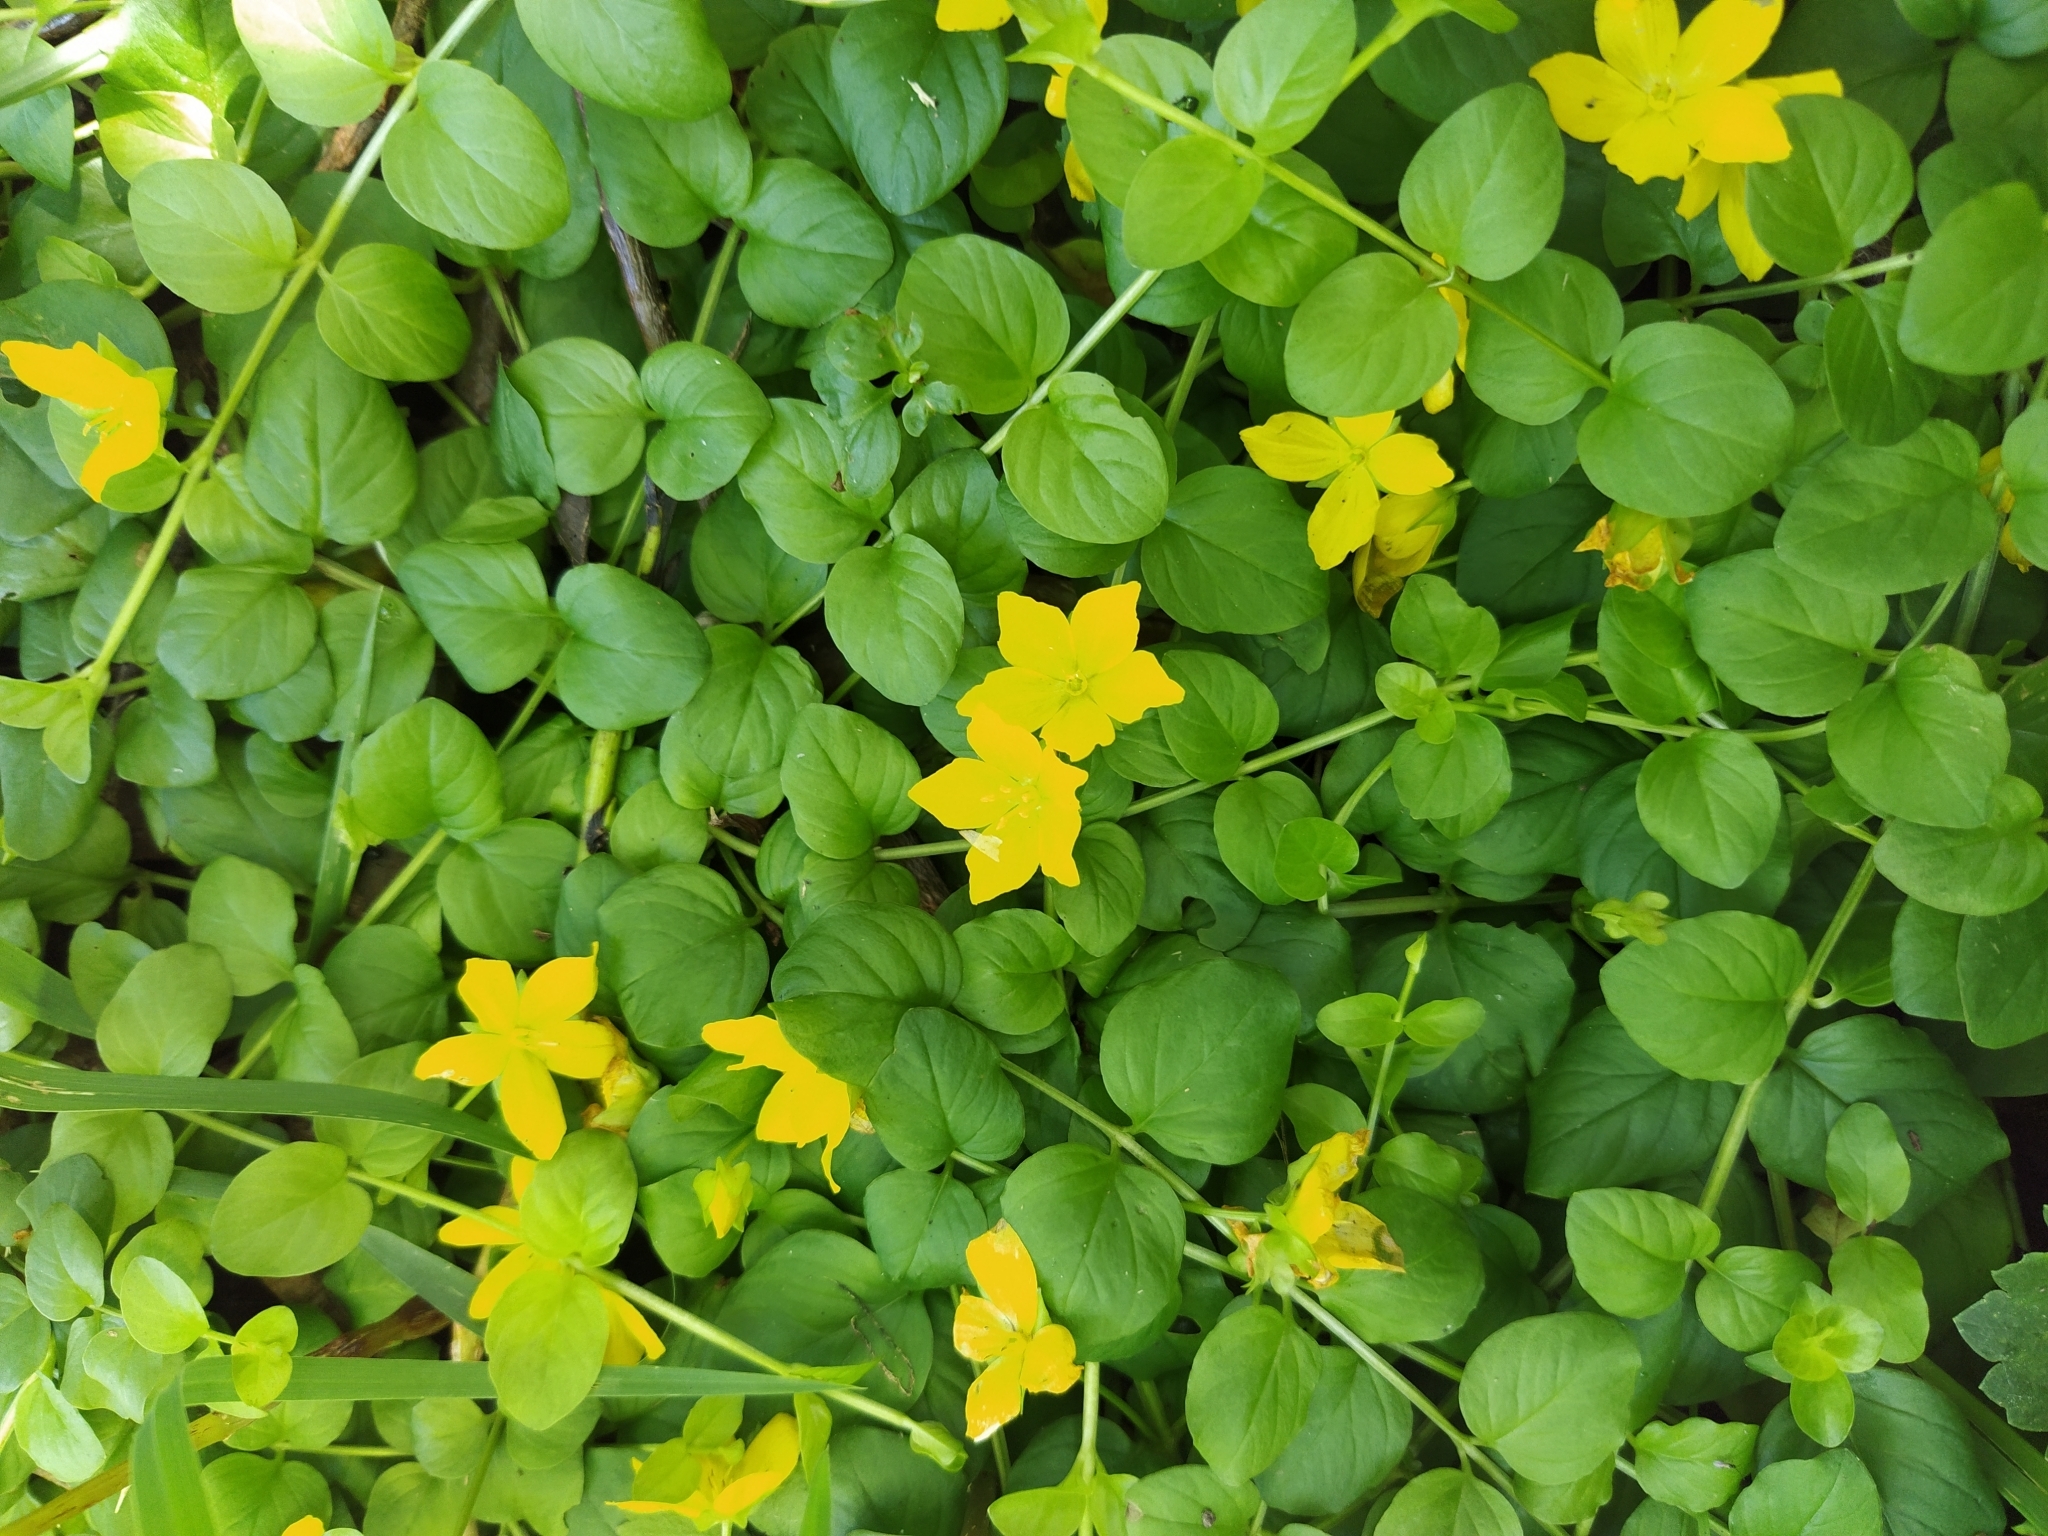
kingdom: Plantae
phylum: Tracheophyta
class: Magnoliopsida
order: Ericales
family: Primulaceae
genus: Lysimachia
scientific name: Lysimachia nummularia
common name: Moneywort
